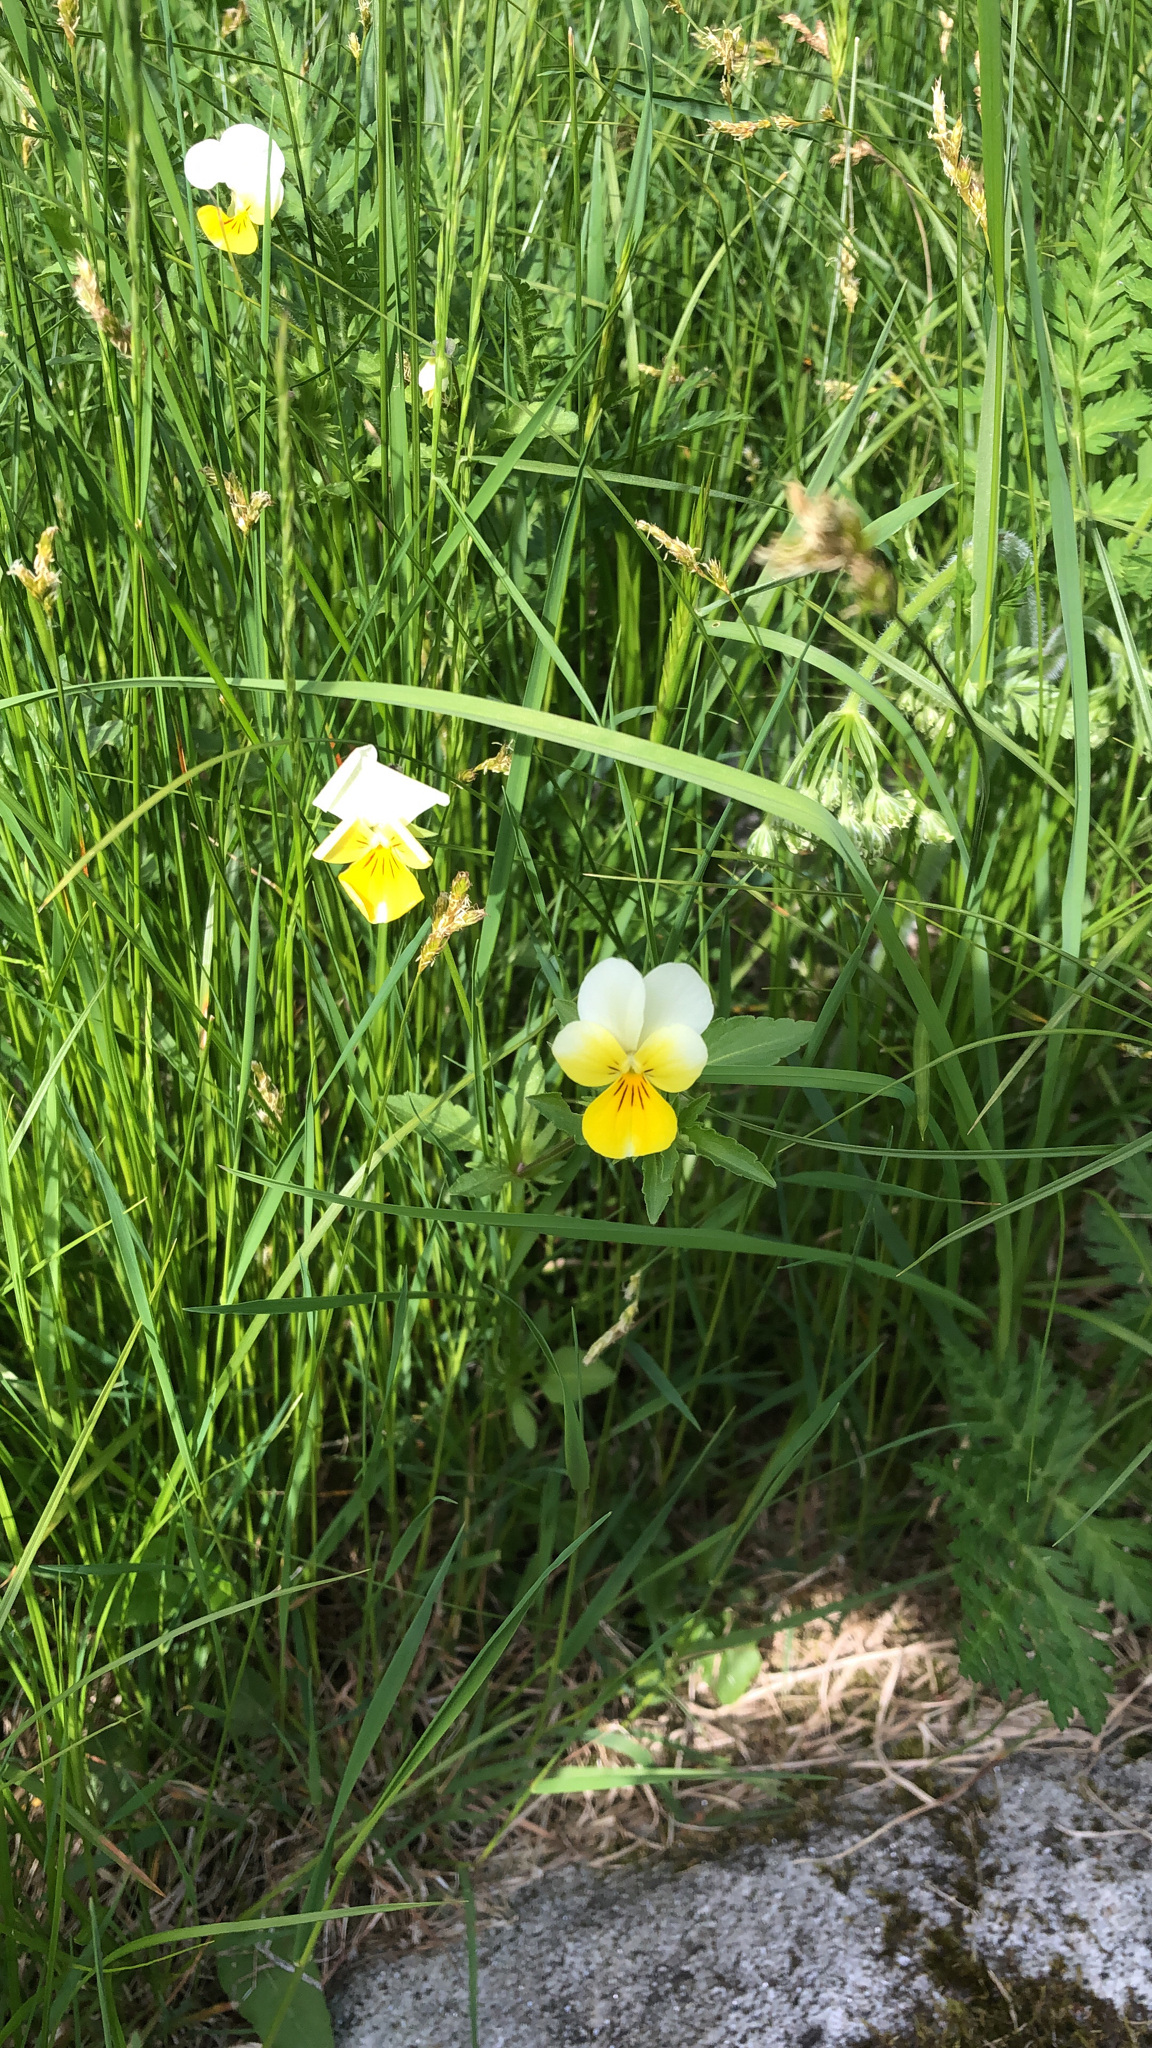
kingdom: Plantae
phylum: Tracheophyta
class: Magnoliopsida
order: Malpighiales
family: Violaceae
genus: Viola
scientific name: Viola arvensis
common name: Field pansy
